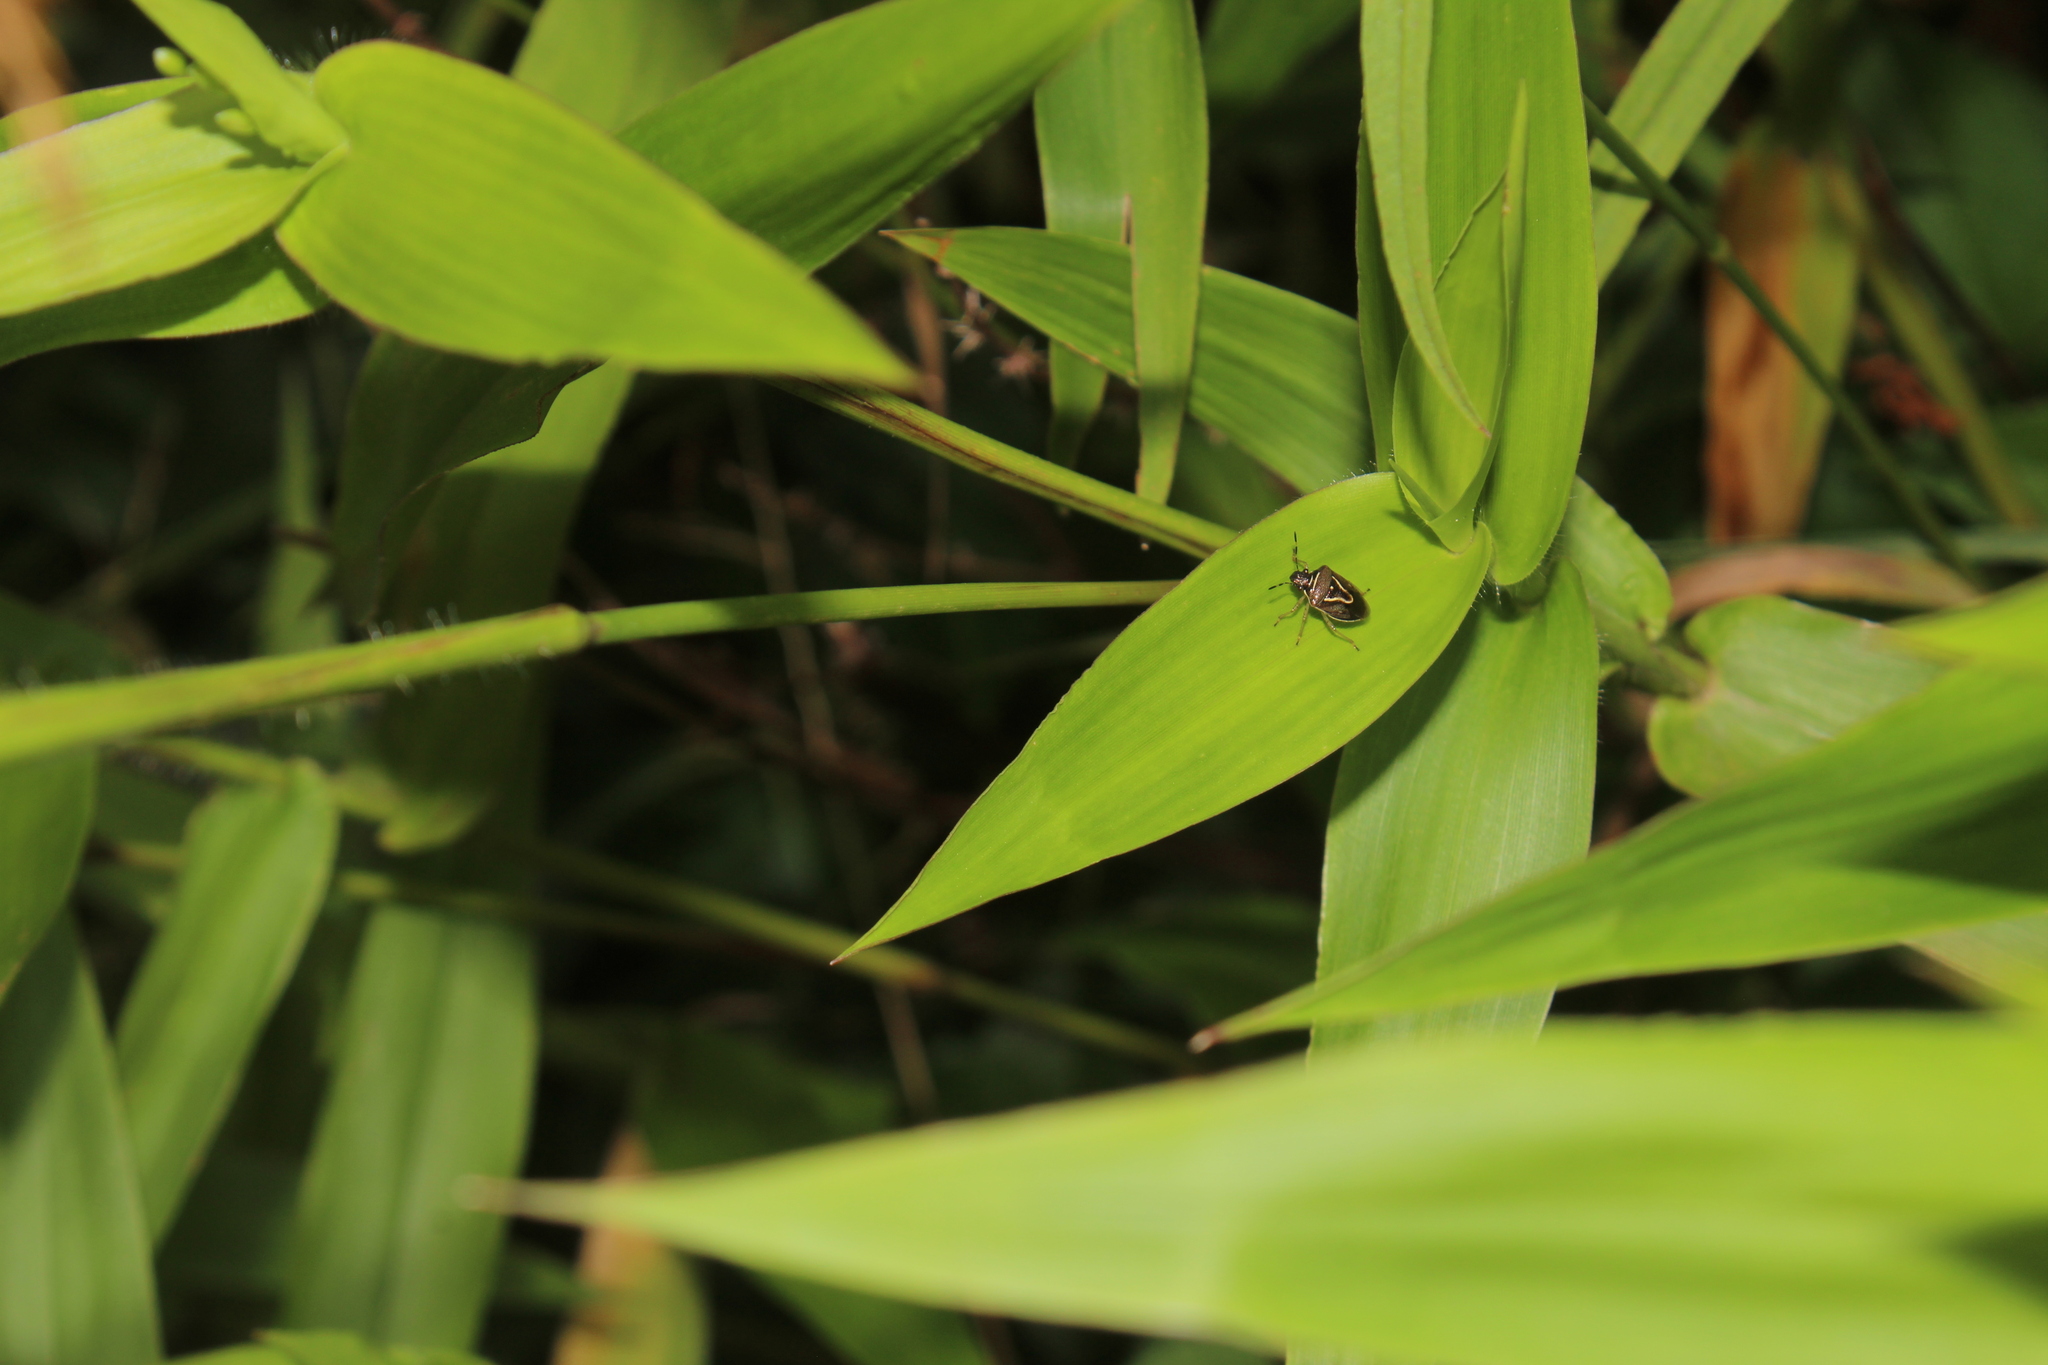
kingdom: Animalia
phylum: Arthropoda
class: Insecta
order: Hemiptera
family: Pentatomidae
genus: Mormidea
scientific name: Mormidea lugens
